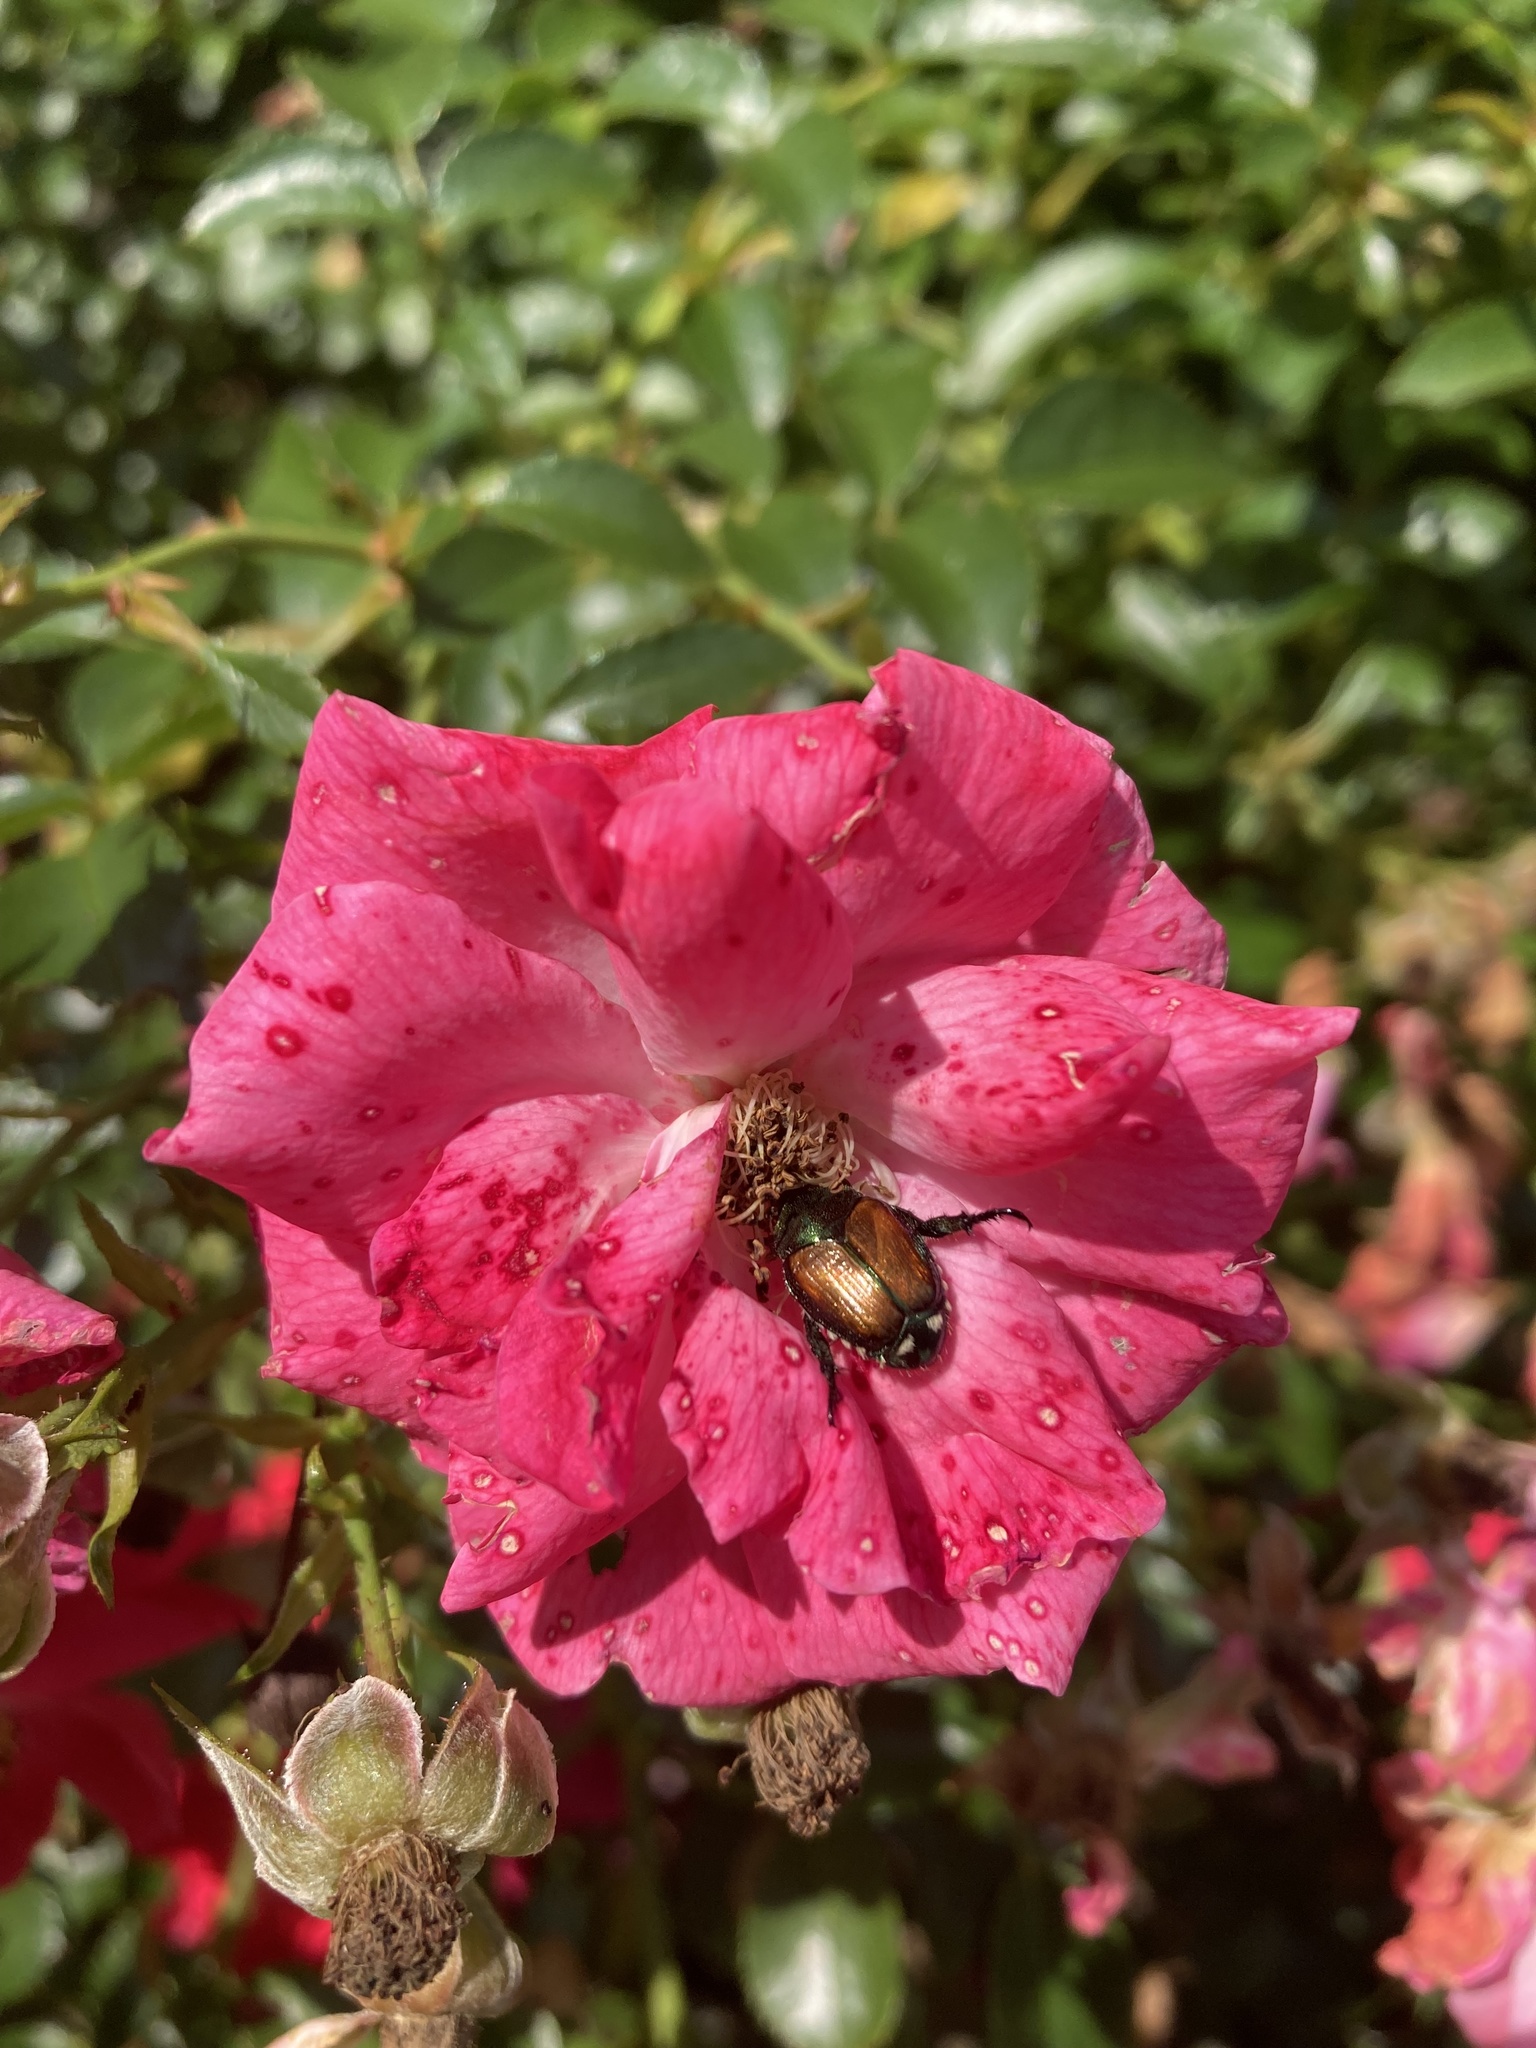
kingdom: Animalia
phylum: Arthropoda
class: Insecta
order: Coleoptera
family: Scarabaeidae
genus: Popillia
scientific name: Popillia japonica
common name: Japanese beetle
